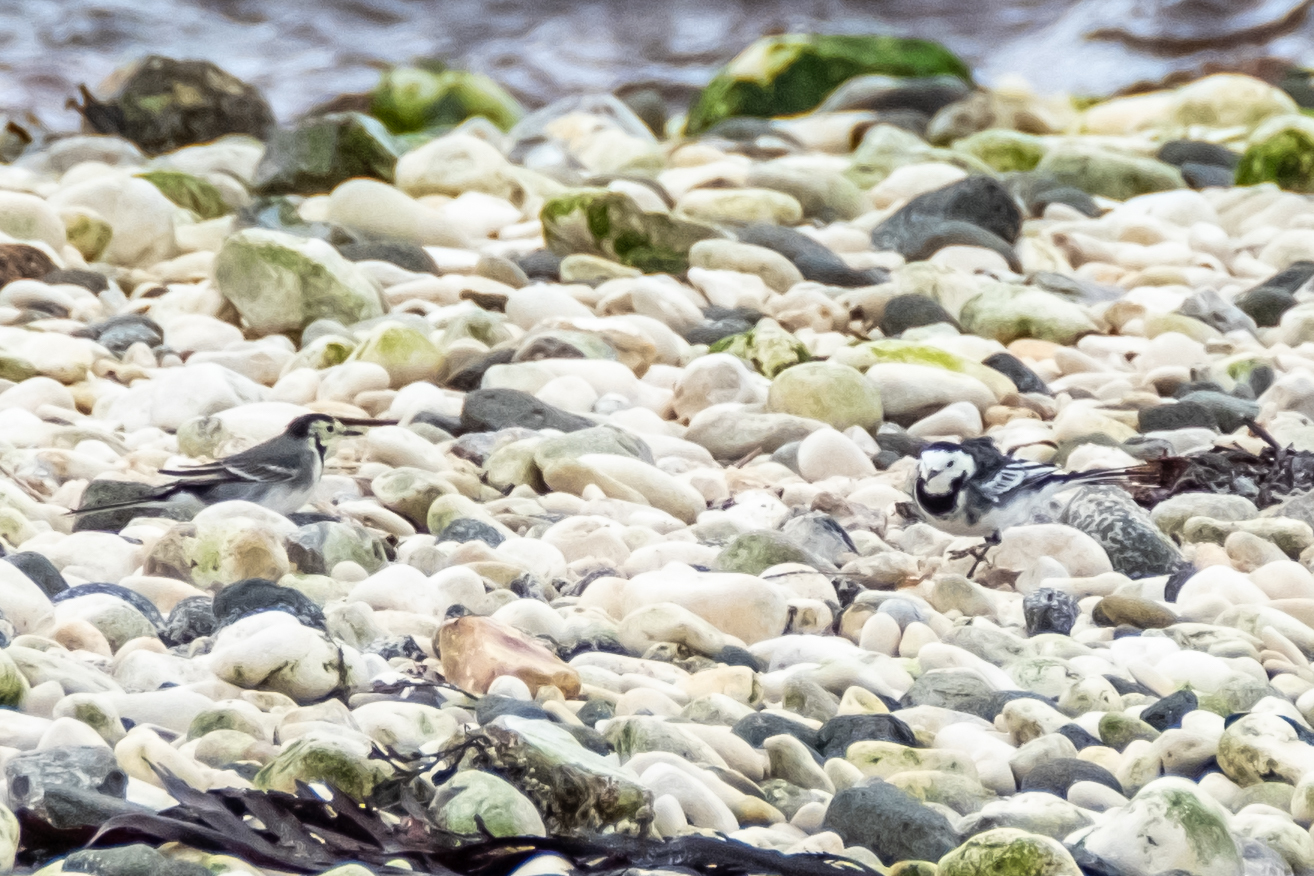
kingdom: Animalia
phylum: Chordata
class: Aves
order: Passeriformes
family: Motacillidae
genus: Motacilla
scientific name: Motacilla alba
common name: White wagtail
